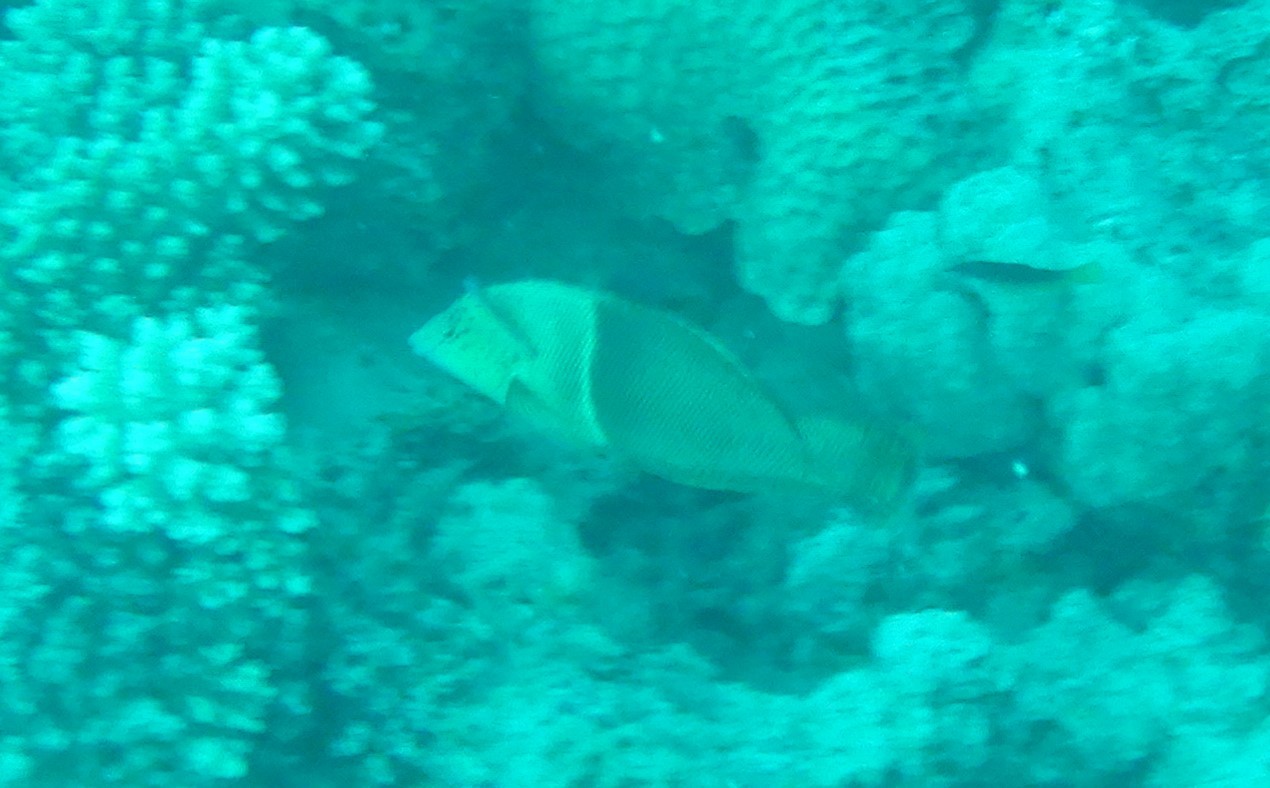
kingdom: Animalia
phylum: Chordata
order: Perciformes
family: Labridae
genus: Coris
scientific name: Coris aygula
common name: Clown coris
